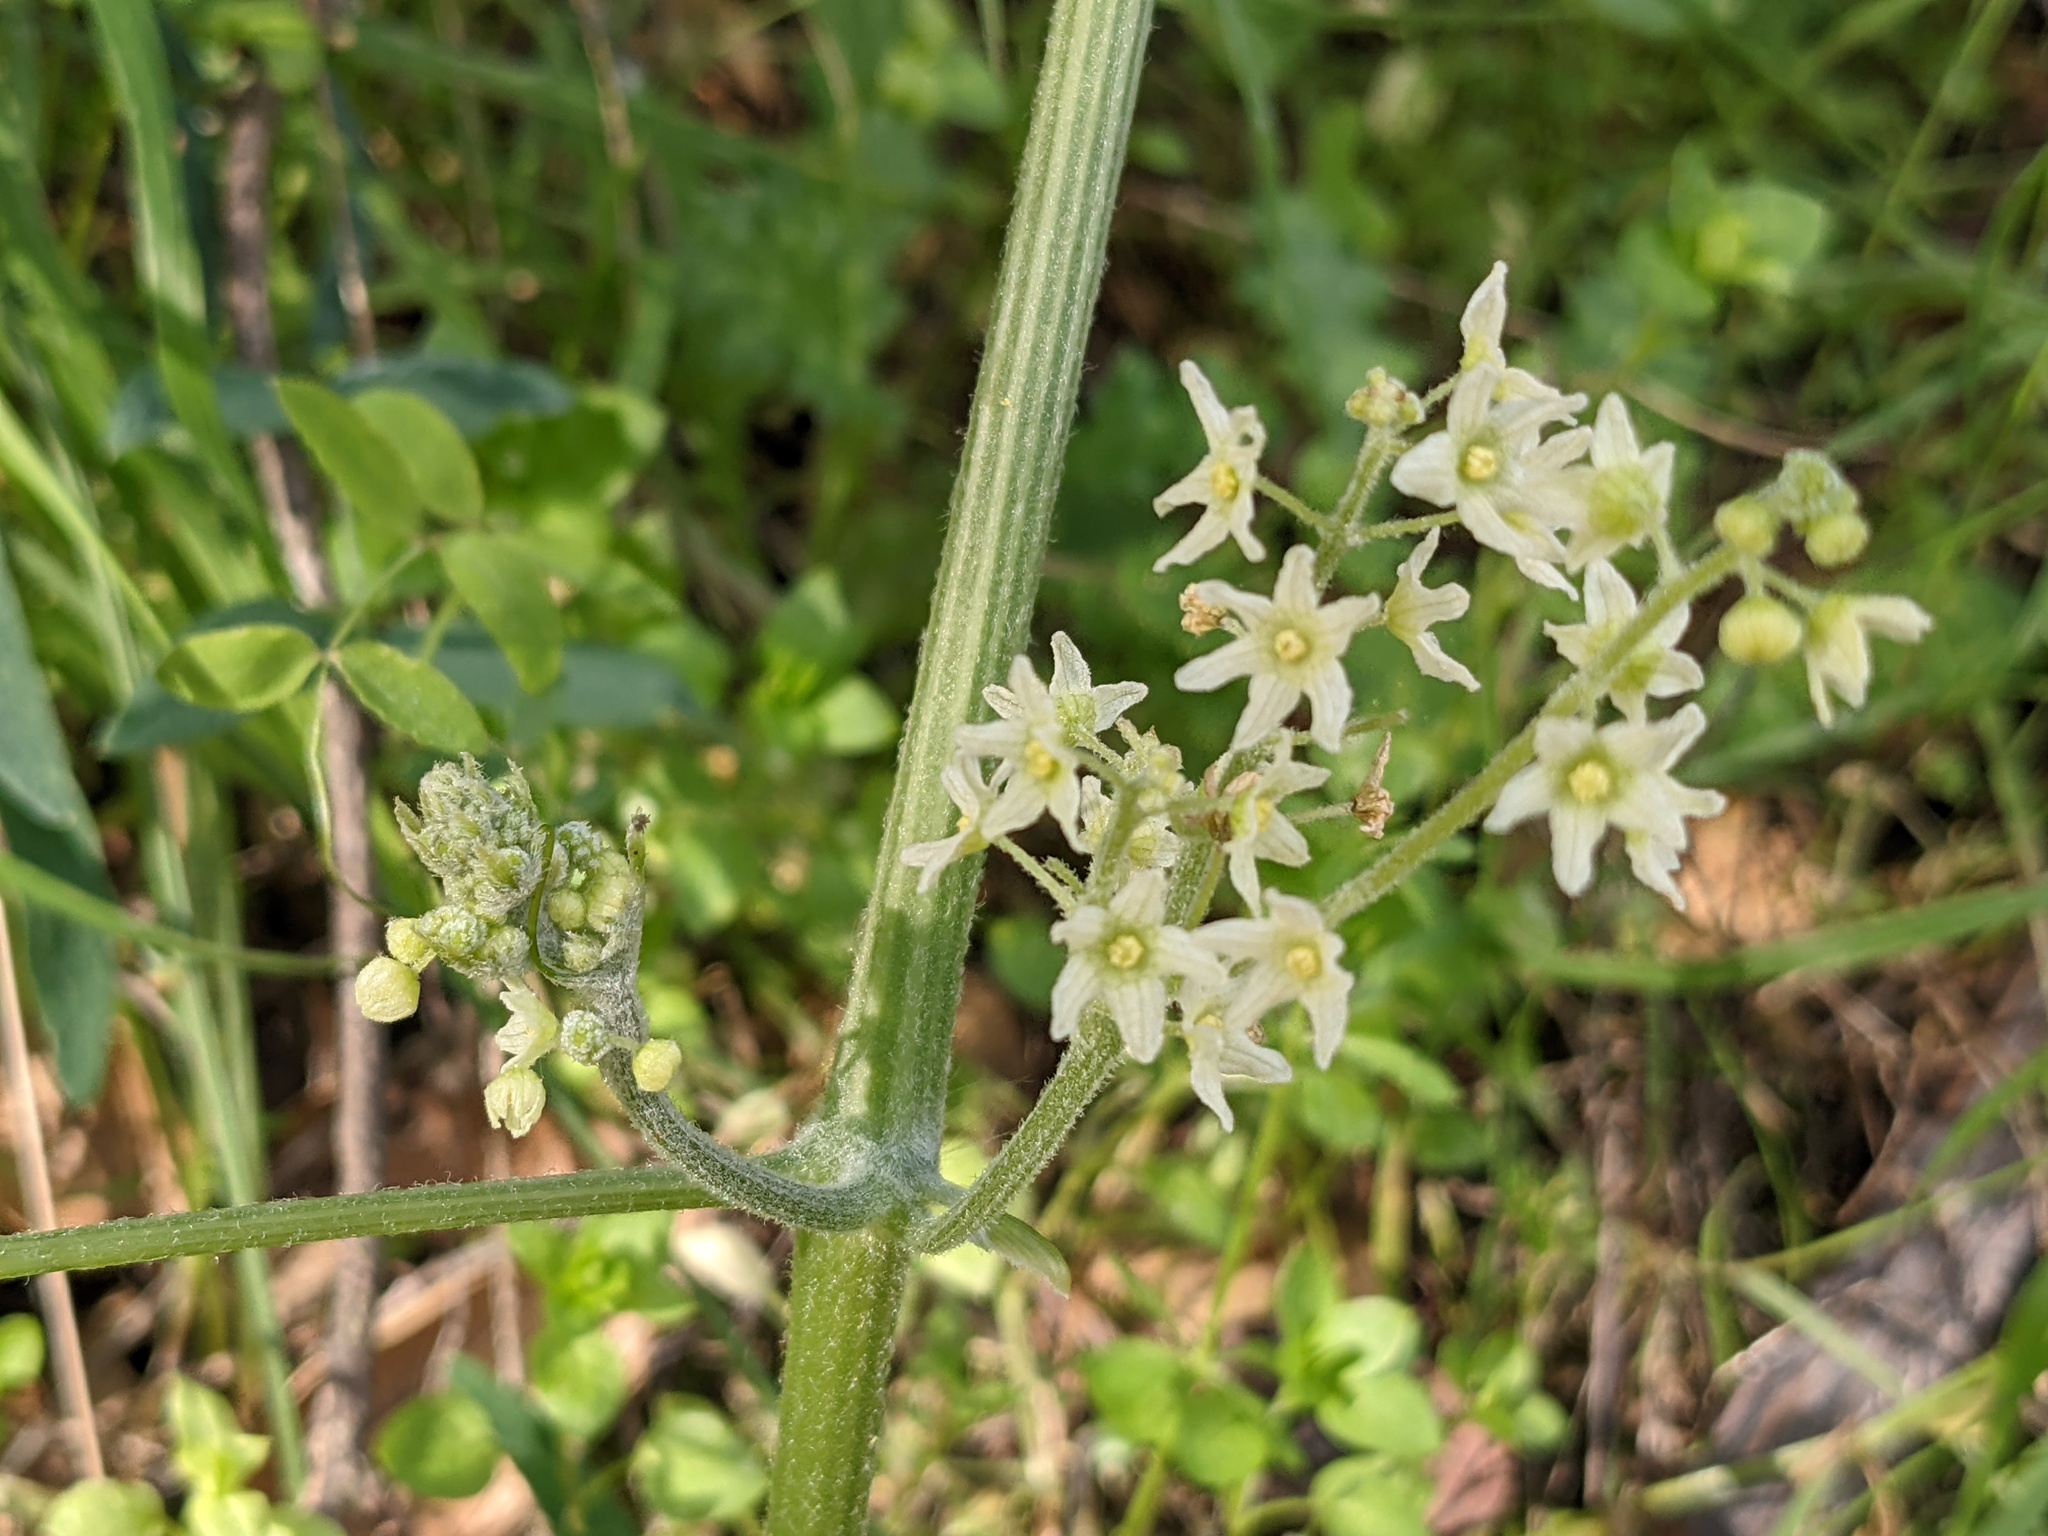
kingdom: Plantae
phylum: Tracheophyta
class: Magnoliopsida
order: Cucurbitales
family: Cucurbitaceae
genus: Marah
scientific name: Marah fabacea
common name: California manroot
